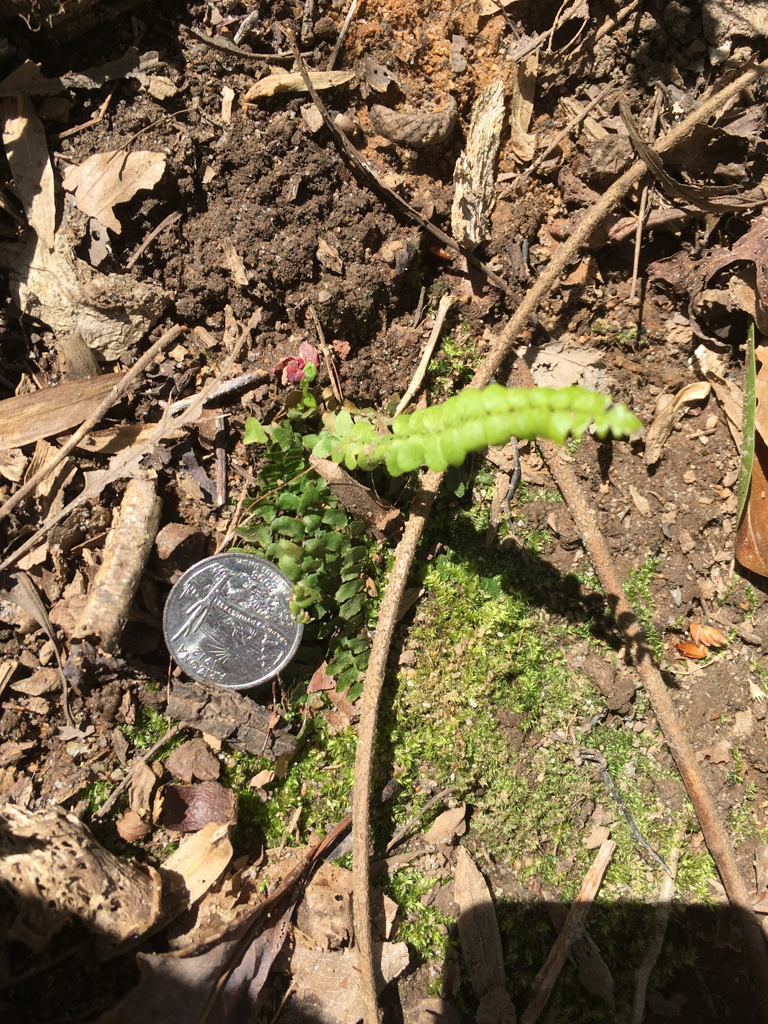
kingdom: Plantae
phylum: Tracheophyta
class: Polypodiopsida
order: Polypodiales
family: Aspleniaceae
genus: Asplenium
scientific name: Asplenium platyneuron
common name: Ebony spleenwort
